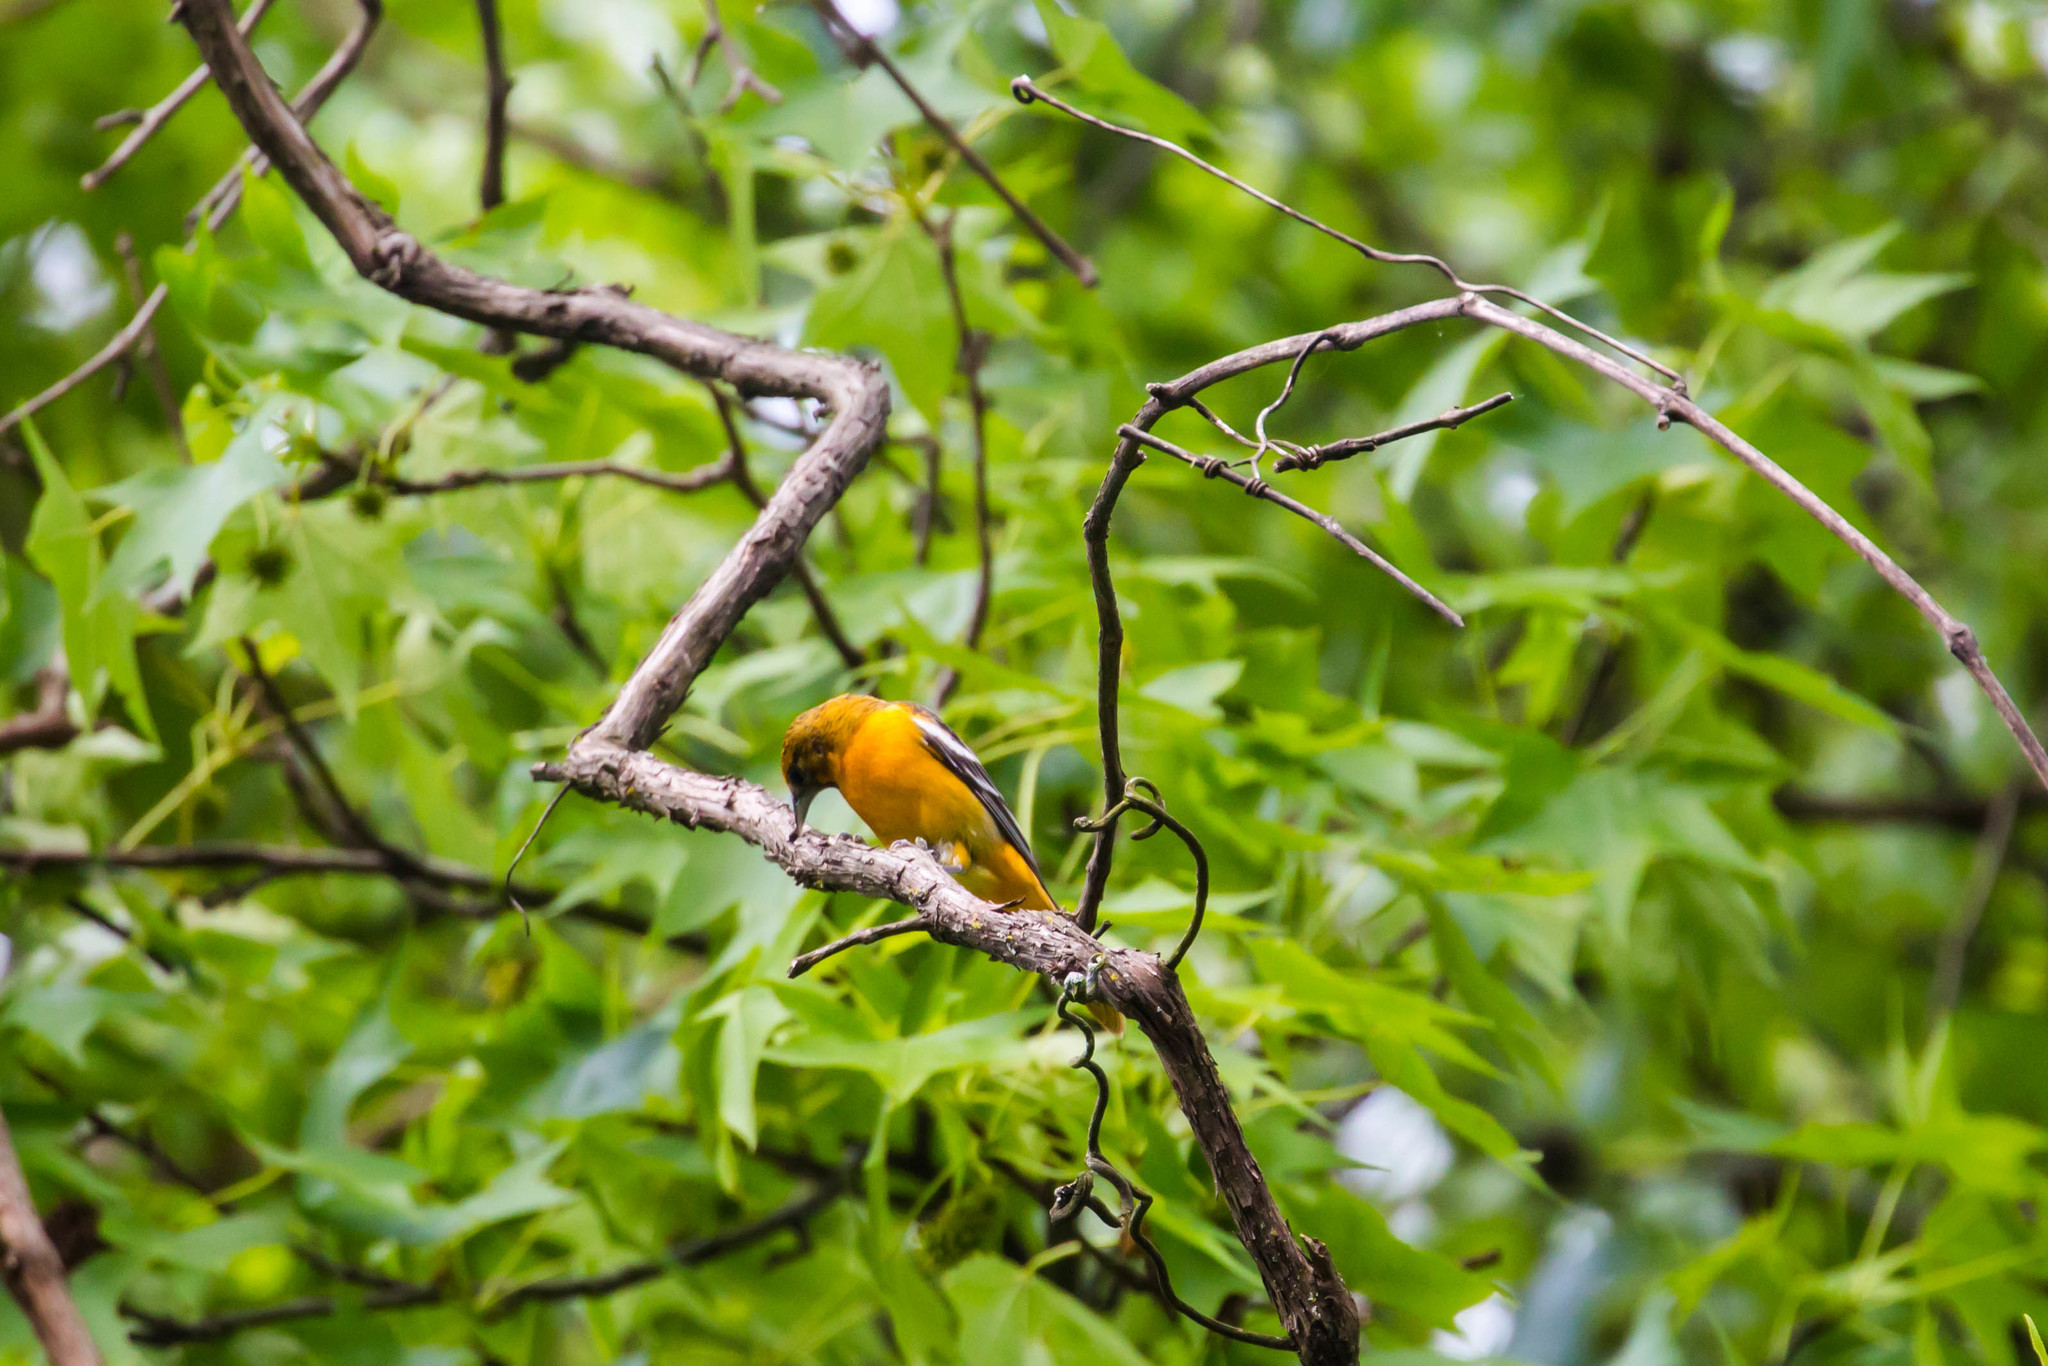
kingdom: Animalia
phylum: Chordata
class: Aves
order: Passeriformes
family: Icteridae
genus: Icterus
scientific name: Icterus galbula
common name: Baltimore oriole
